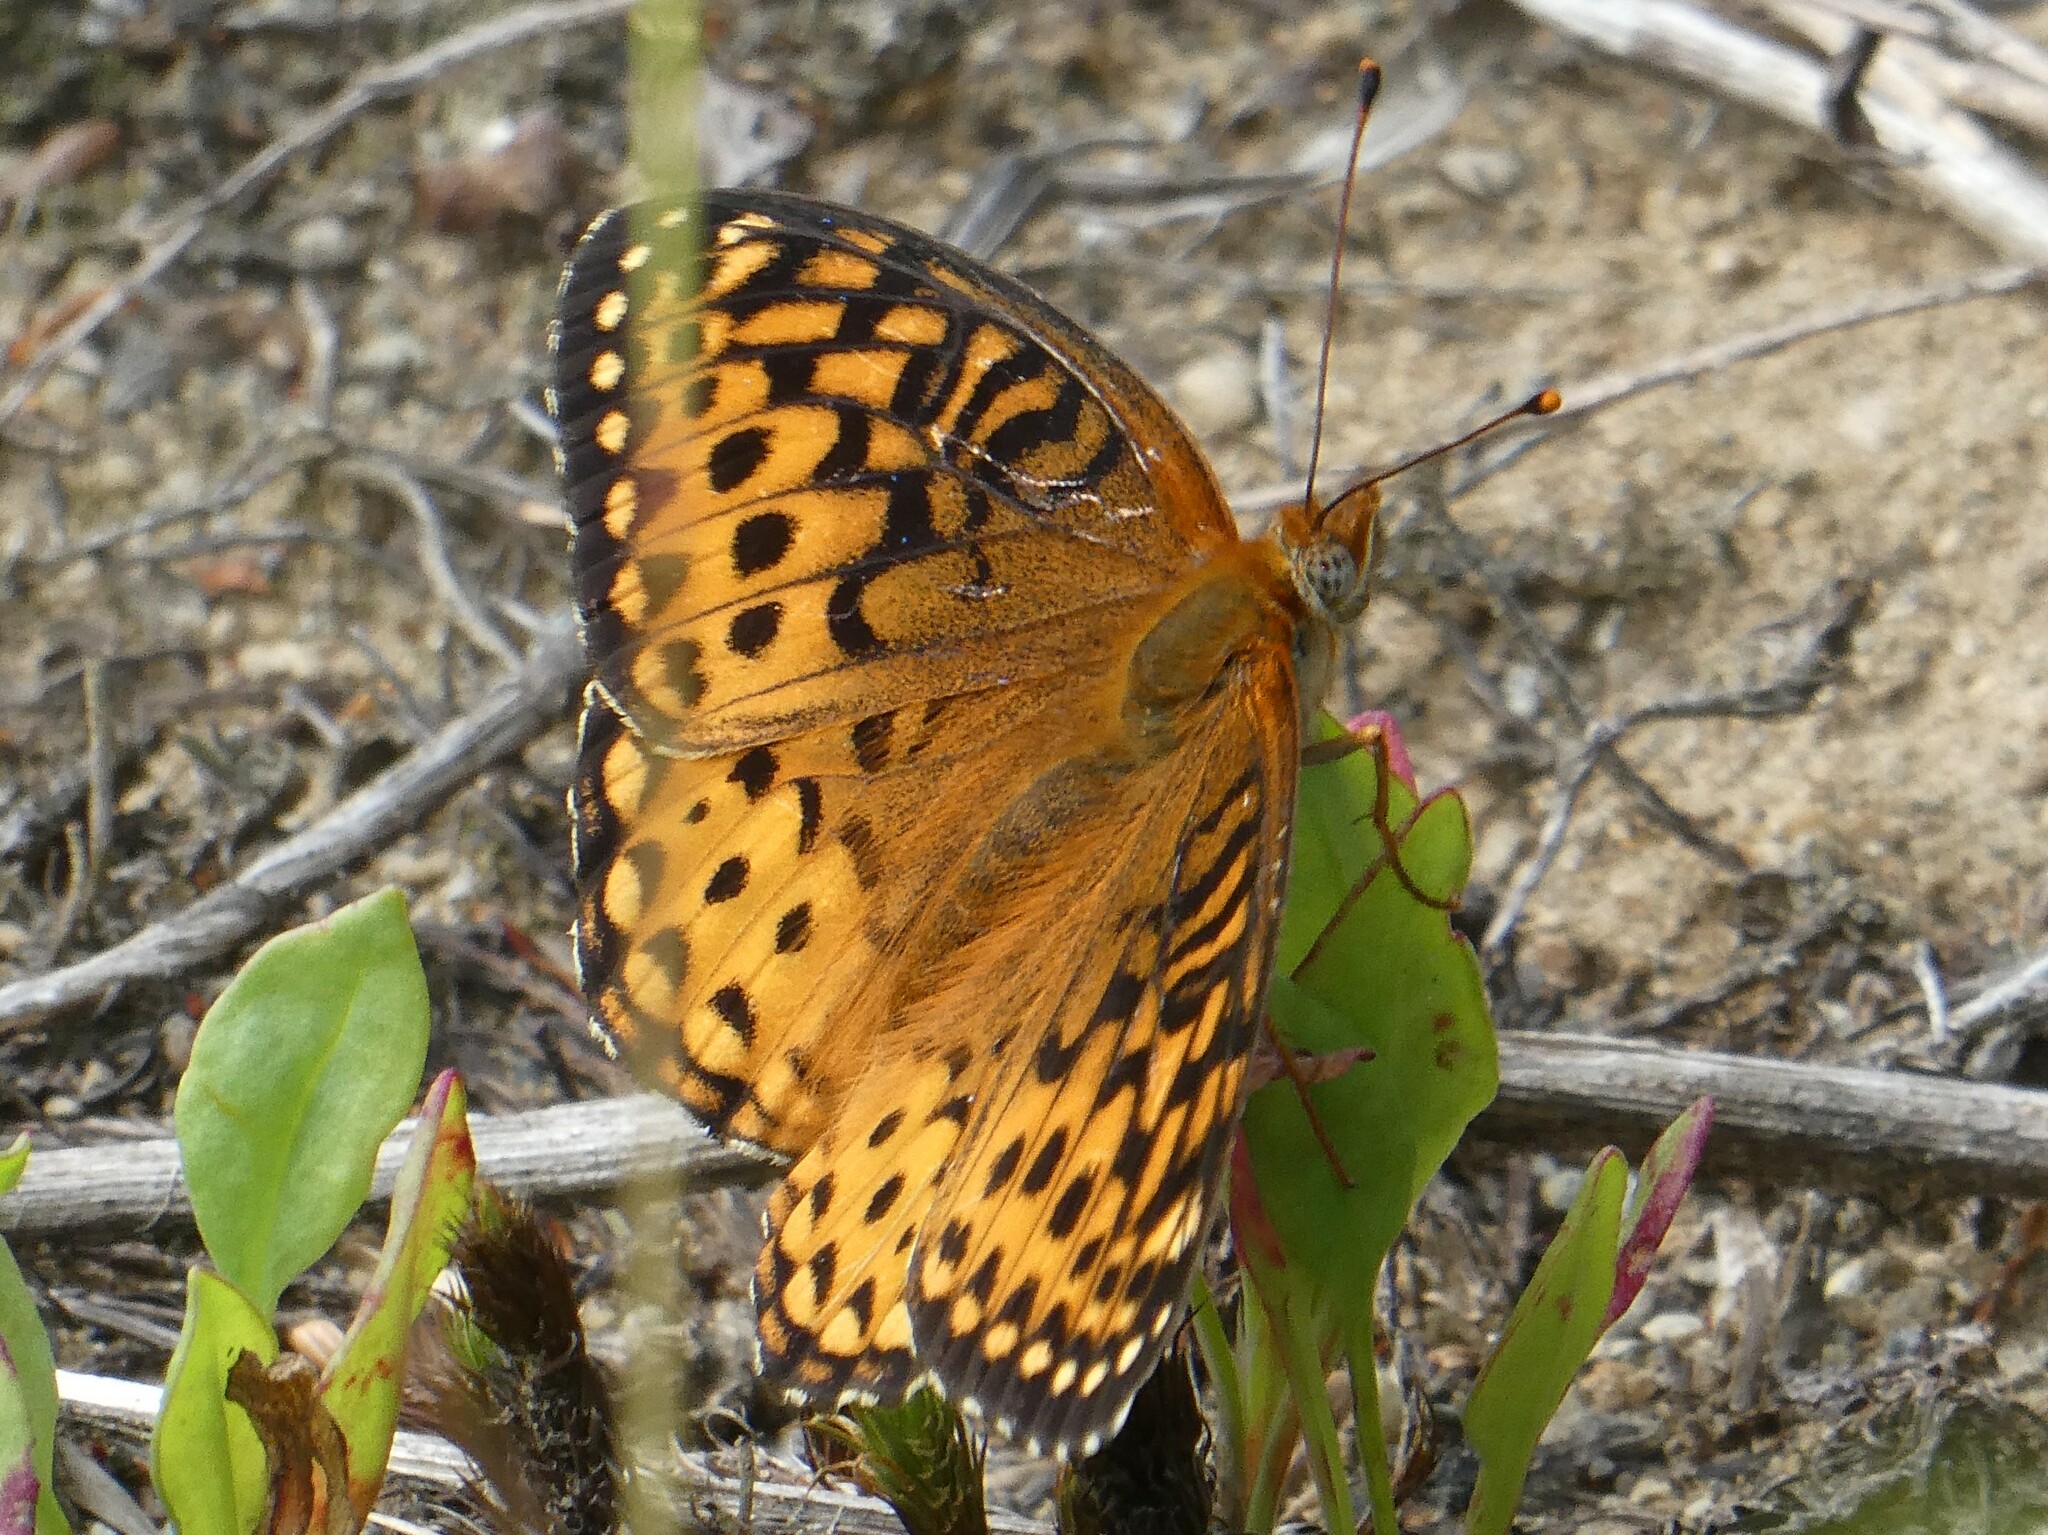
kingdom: Animalia
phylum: Arthropoda
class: Insecta
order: Lepidoptera
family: Nymphalidae
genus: Speyeria
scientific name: Speyeria atlantis
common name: Atlantis fritillary
